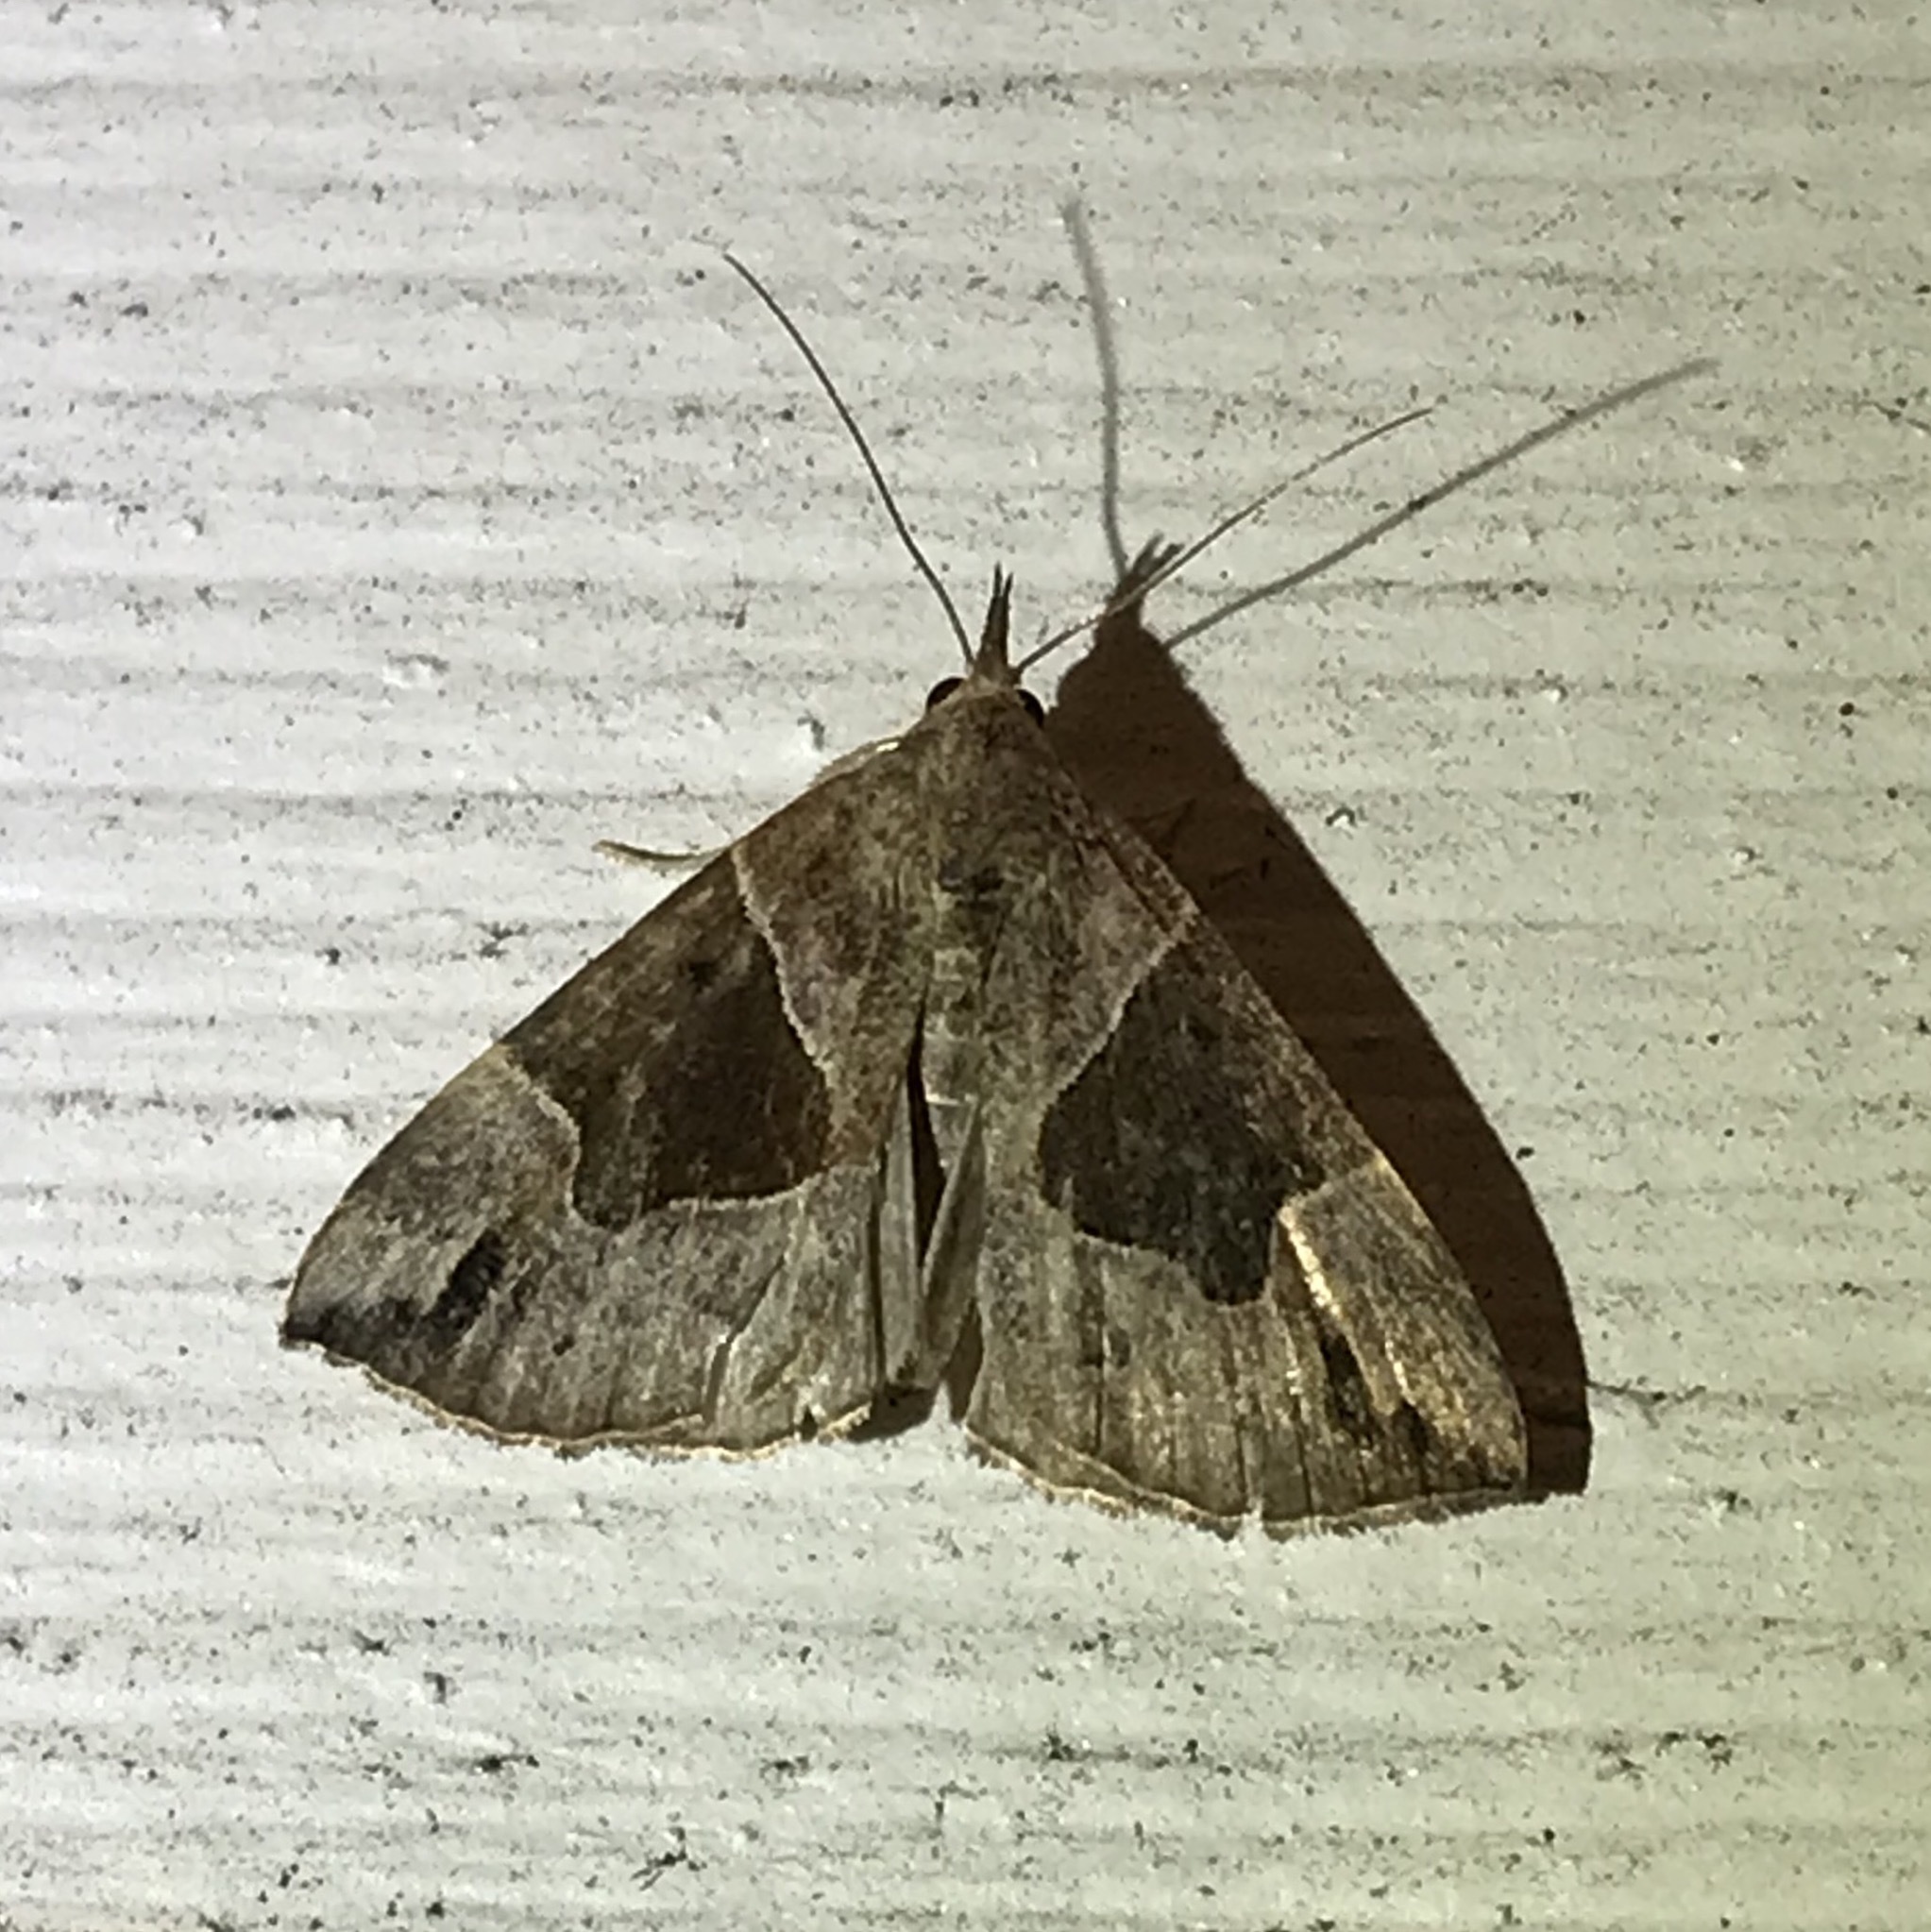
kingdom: Animalia
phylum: Arthropoda
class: Insecta
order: Lepidoptera
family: Erebidae
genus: Hypena
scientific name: Hypena manalis
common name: Flowing-line bomolocha moth
